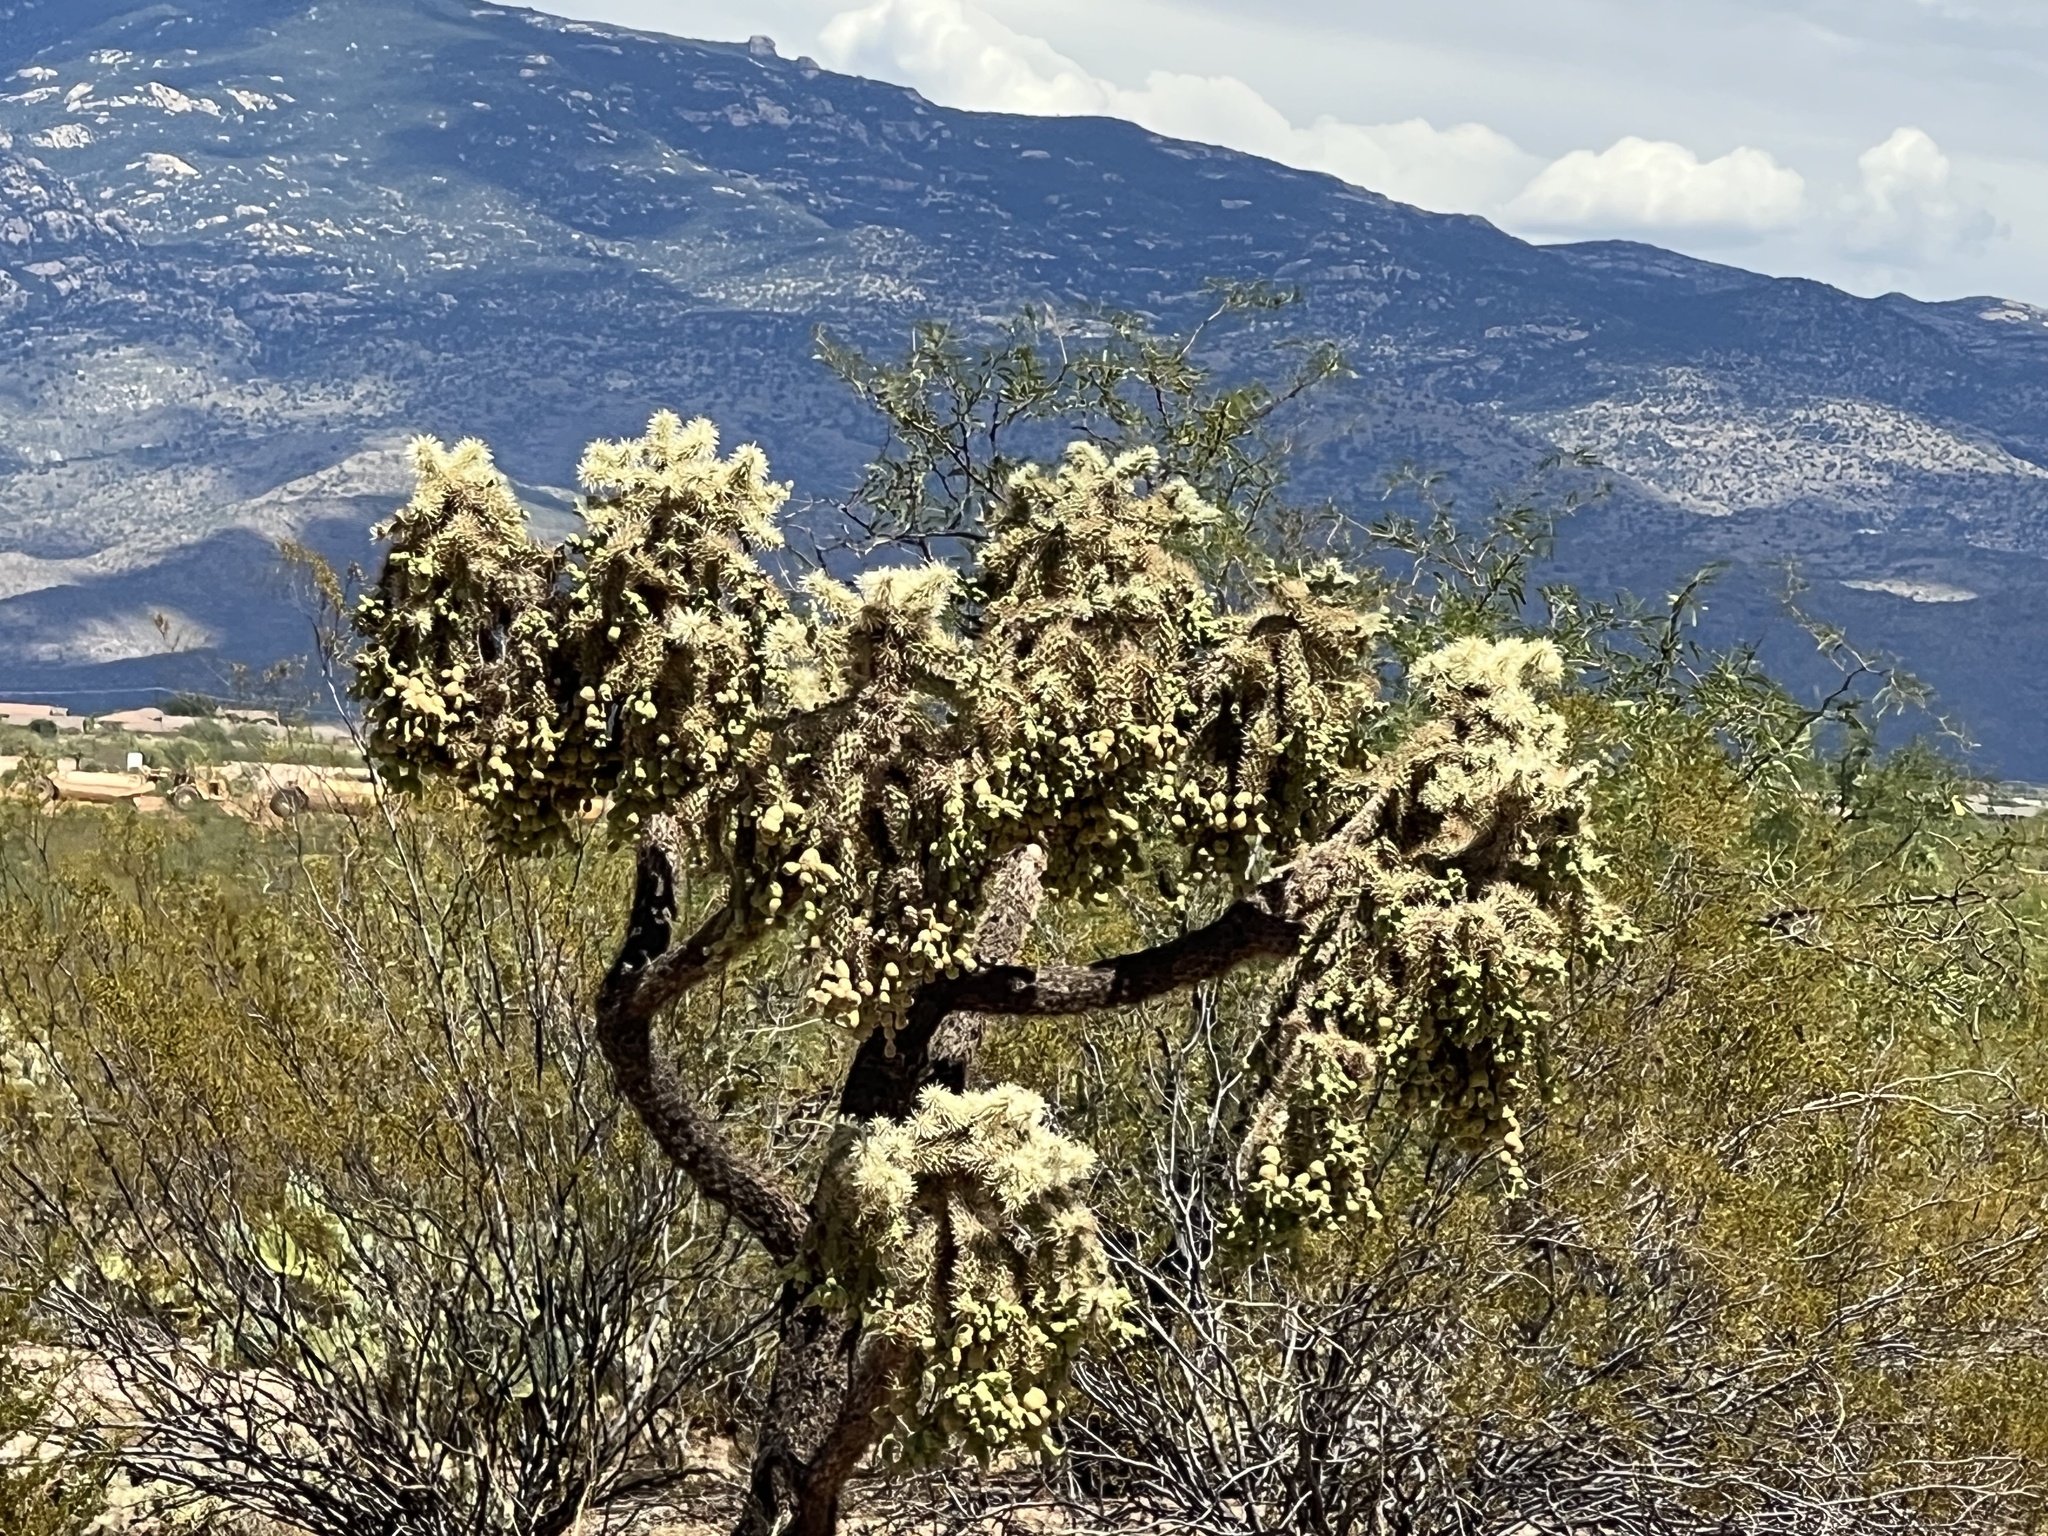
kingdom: Plantae
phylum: Tracheophyta
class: Magnoliopsida
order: Caryophyllales
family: Cactaceae
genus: Cylindropuntia
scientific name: Cylindropuntia fulgida
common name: Jumping cholla
